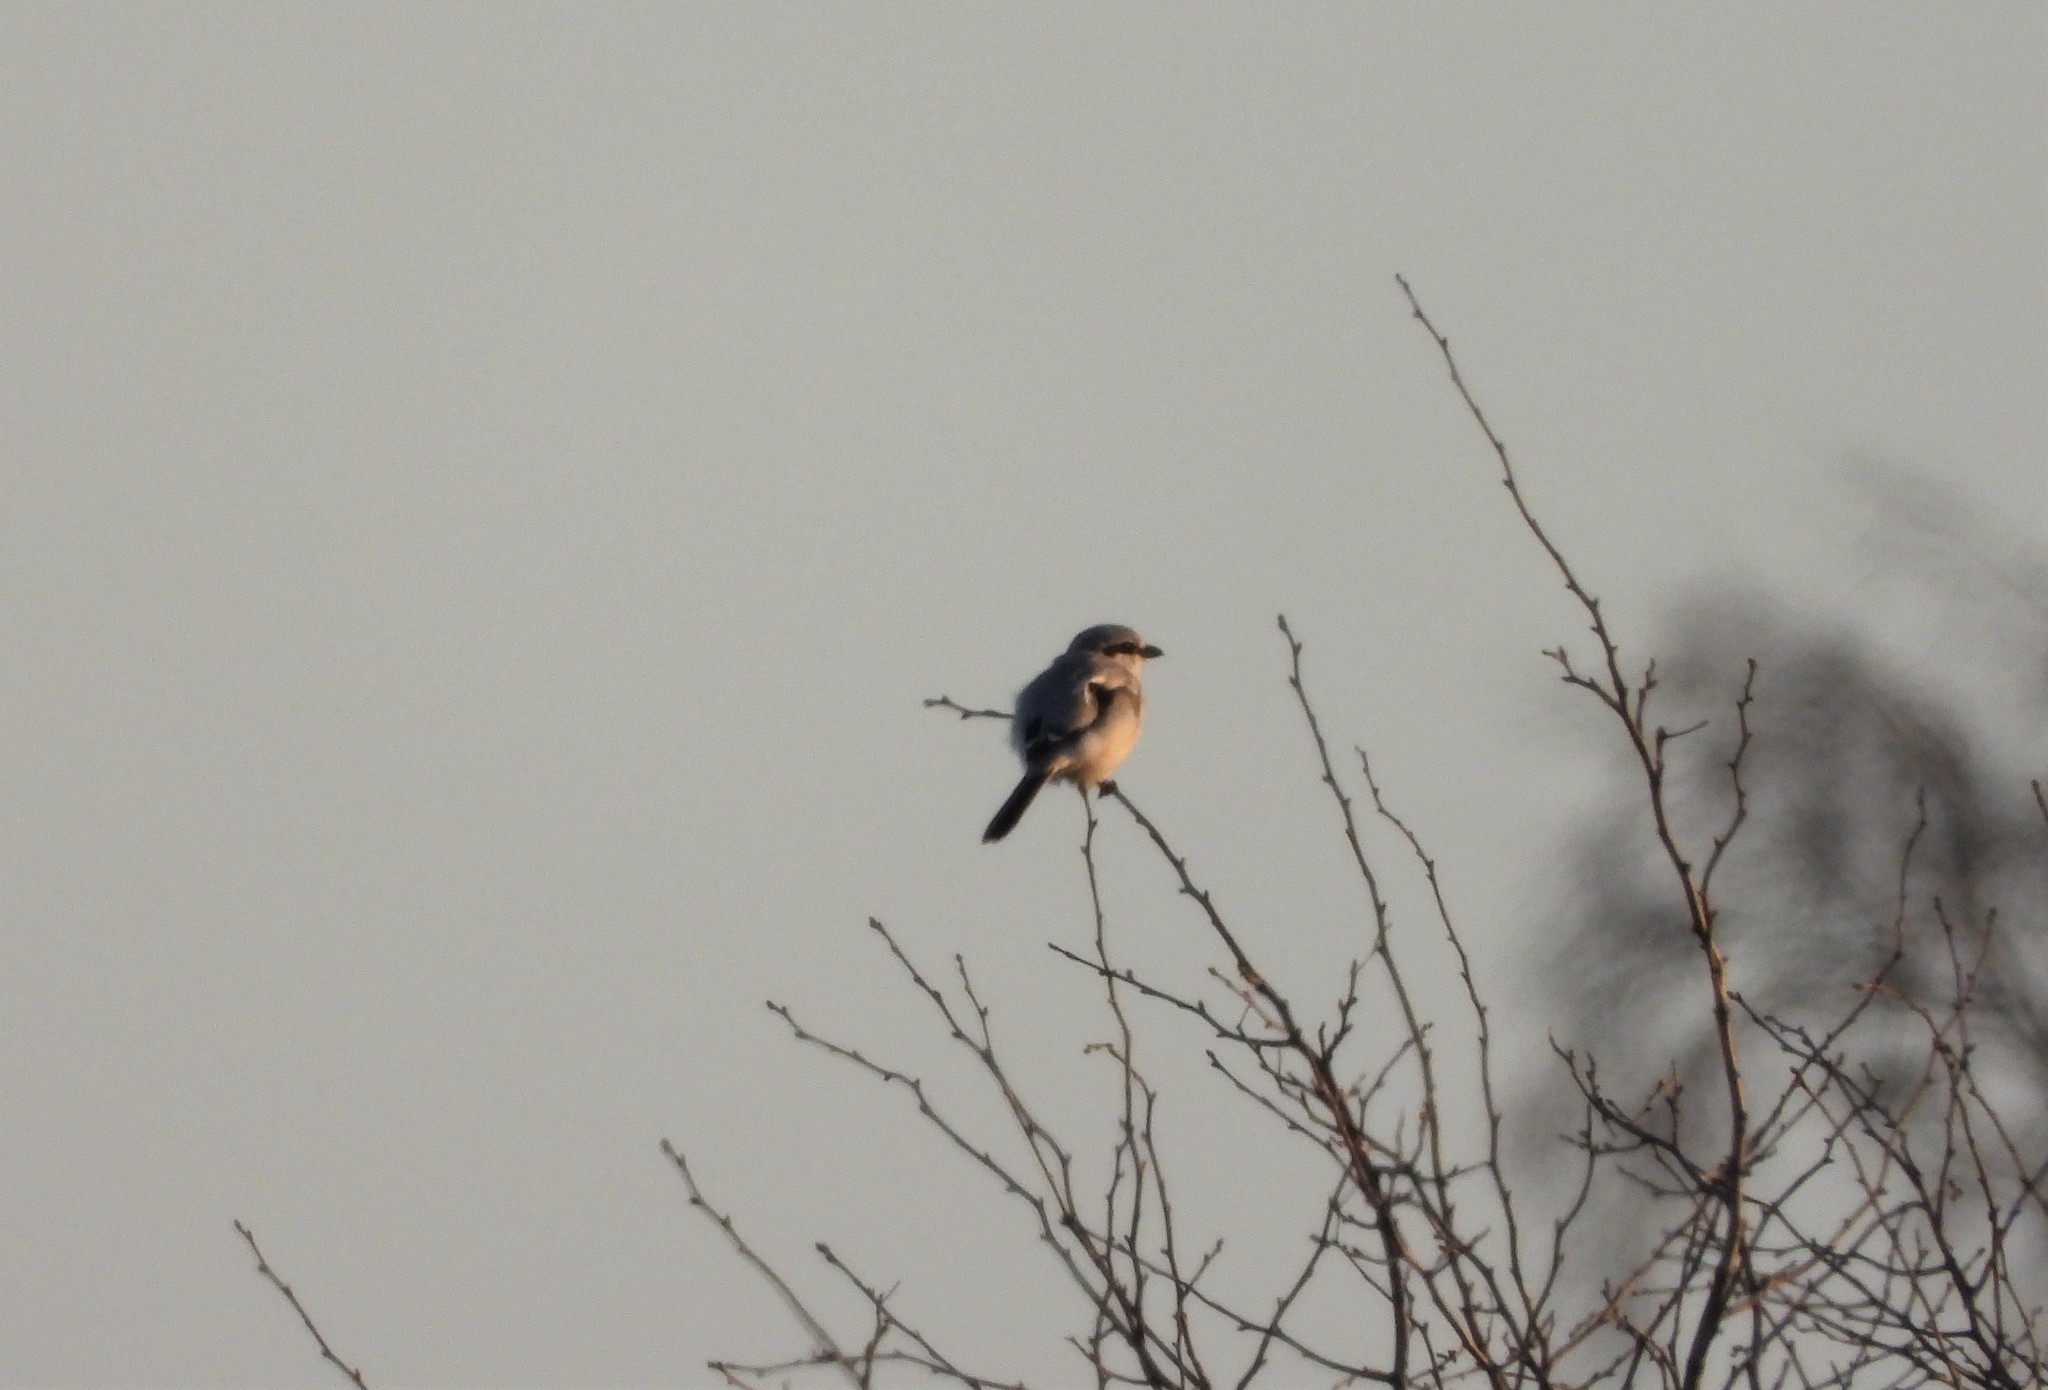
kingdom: Animalia
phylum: Chordata
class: Aves
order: Passeriformes
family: Laniidae
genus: Lanius
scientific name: Lanius excubitor
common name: Great grey shrike
